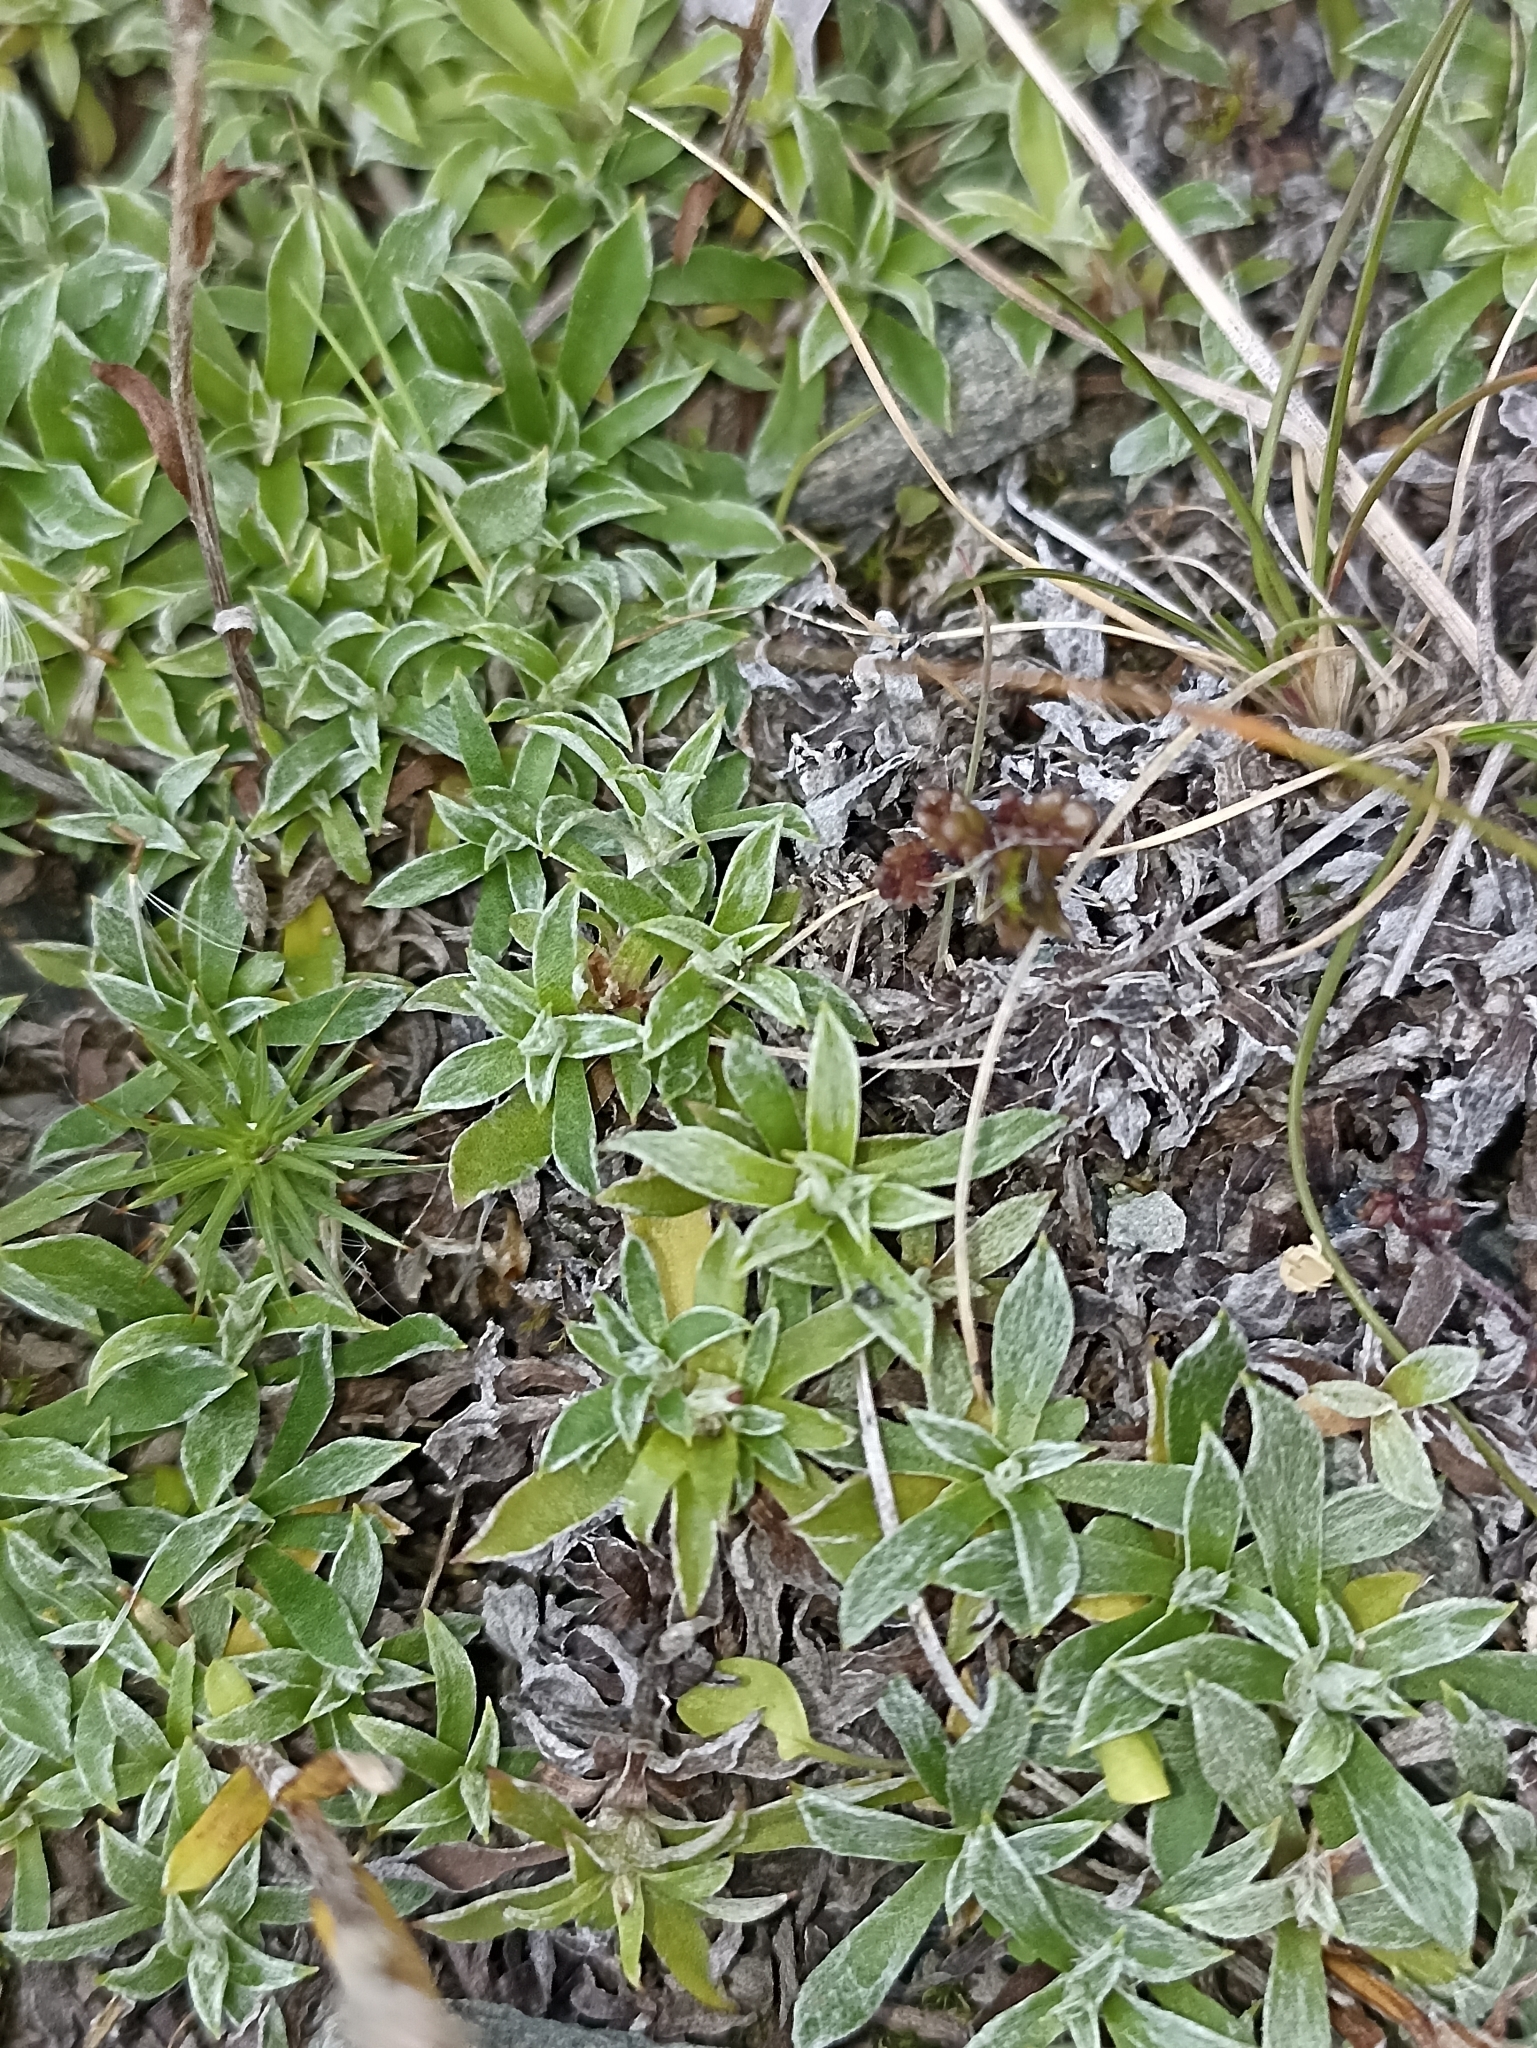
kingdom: Plantae
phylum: Tracheophyta
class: Magnoliopsida
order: Asterales
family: Asteraceae
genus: Antennaria
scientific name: Antennaria alpina
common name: Alpine pussytoes
